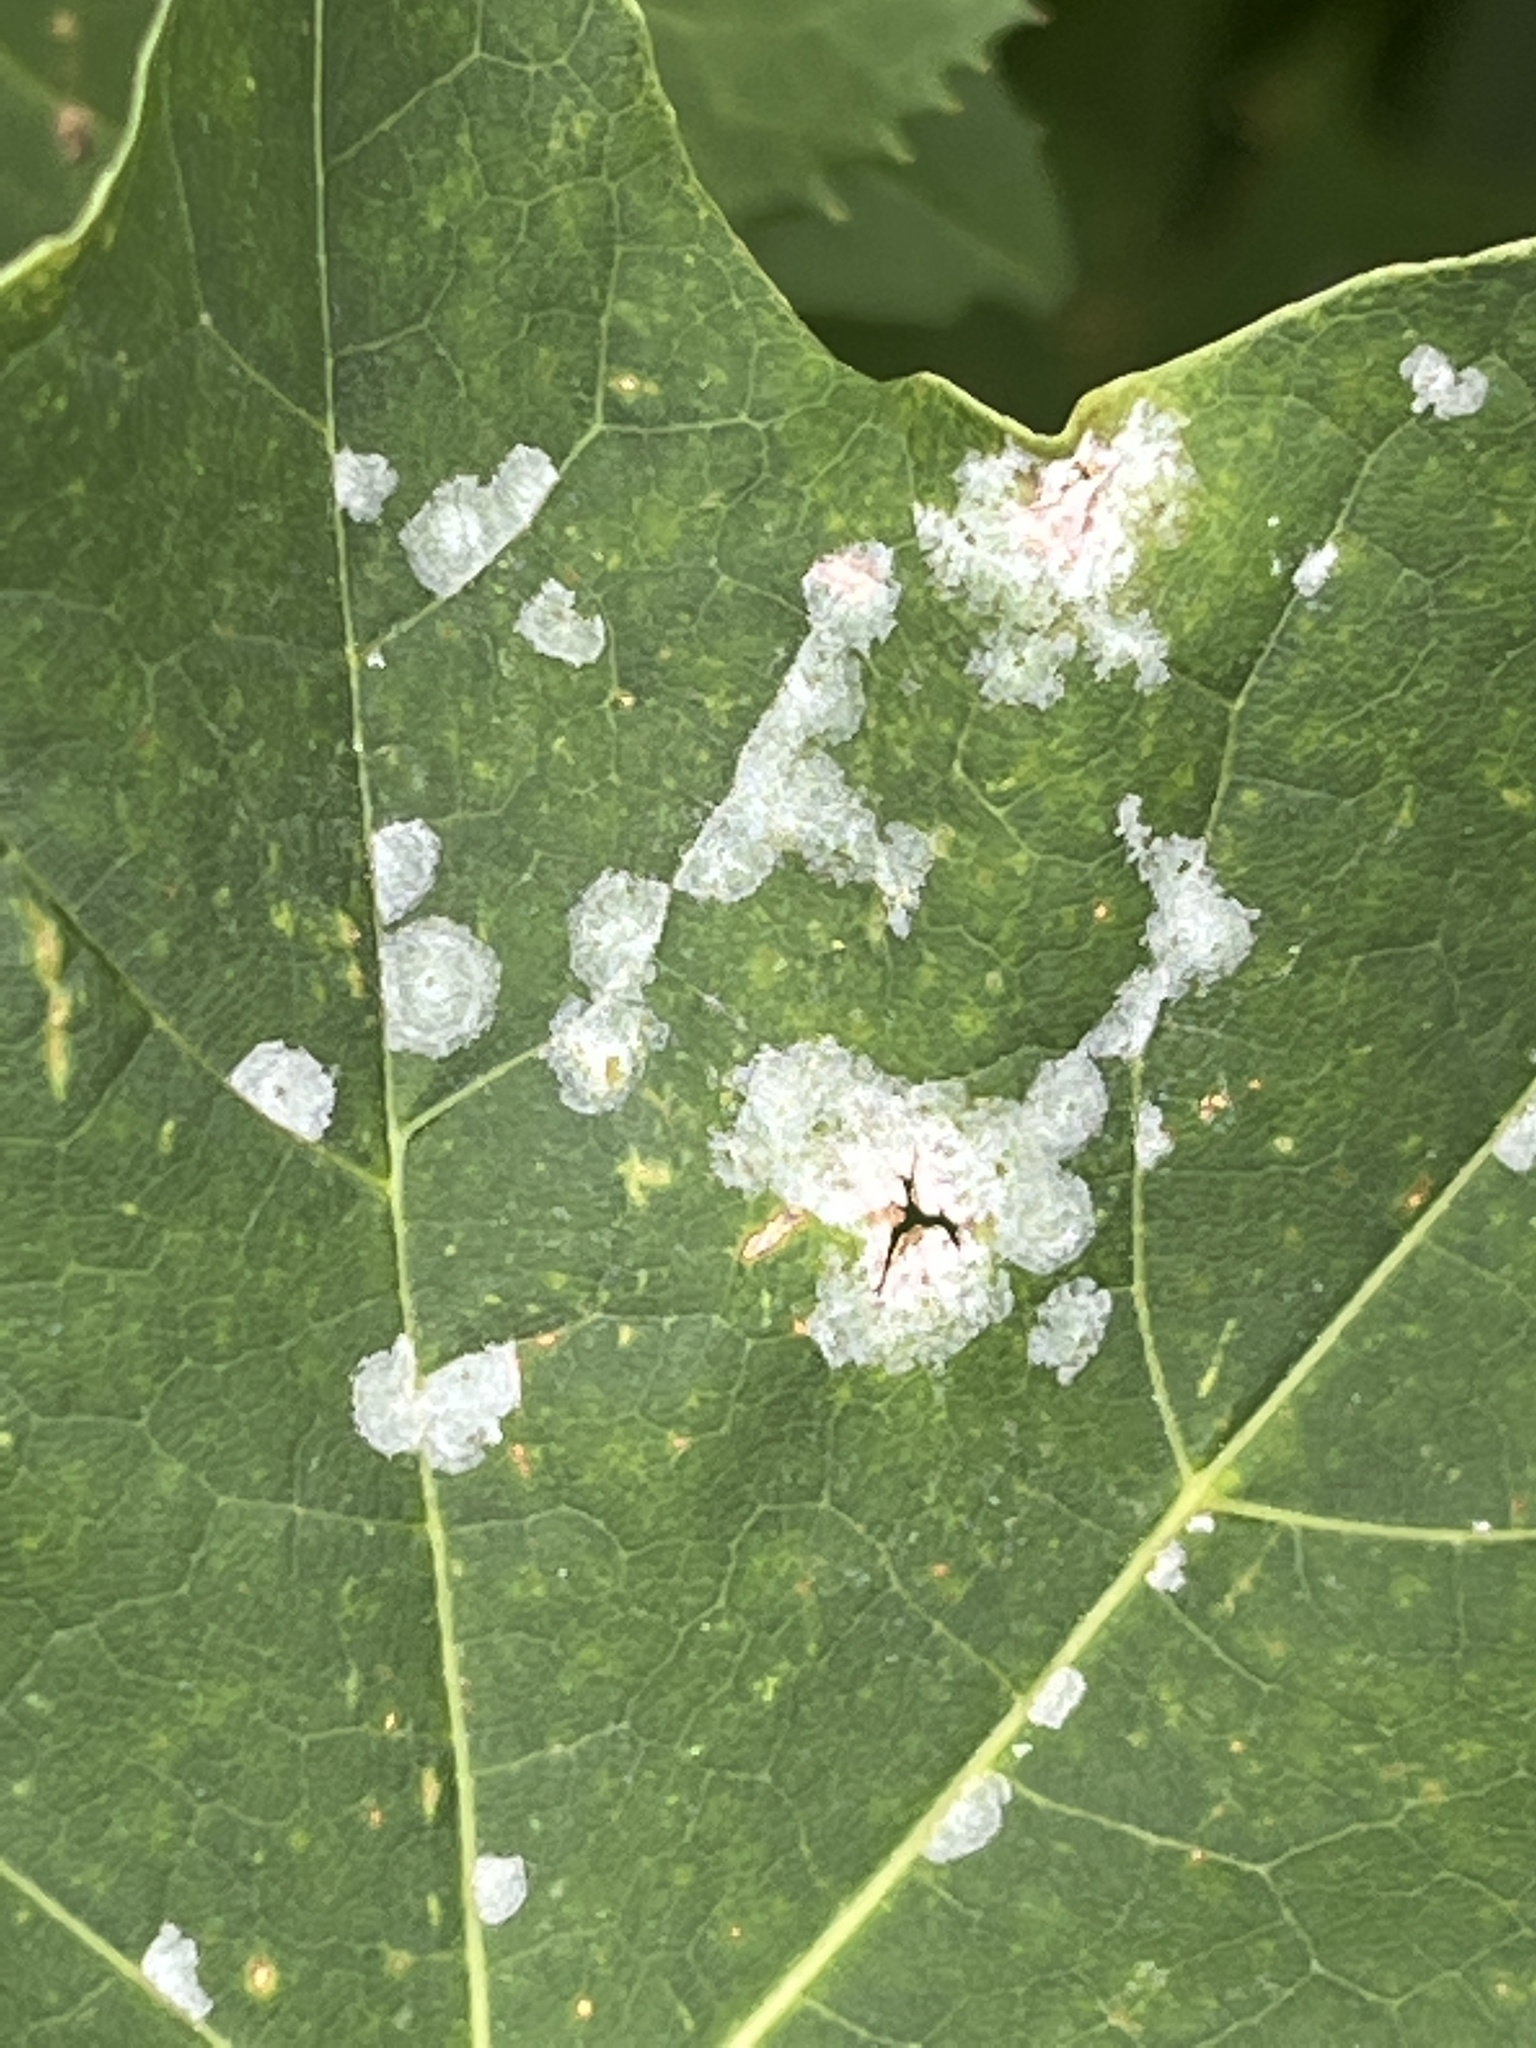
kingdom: Fungi
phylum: Ascomycota
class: Leotiomycetes
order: Helotiales
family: Erysiphaceae
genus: Sawadaea
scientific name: Sawadaea tulasnei
